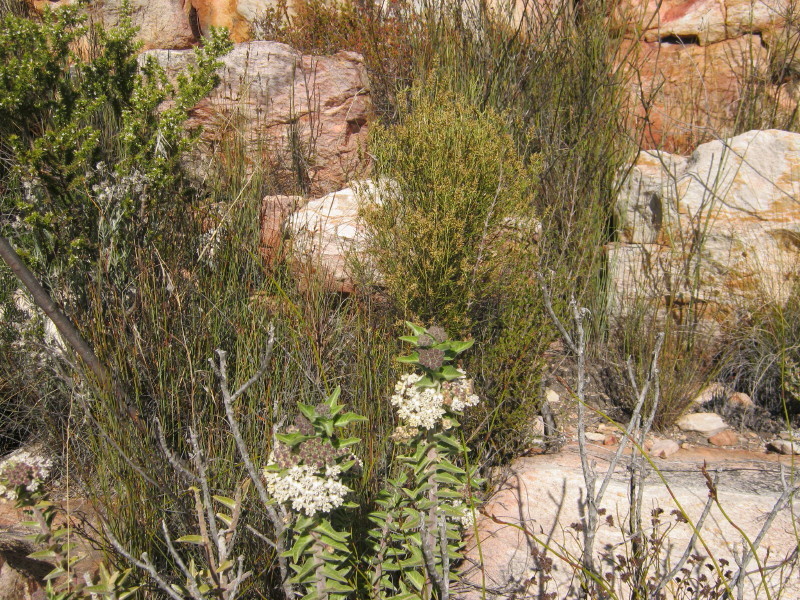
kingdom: Plantae
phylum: Tracheophyta
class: Magnoliopsida
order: Gentianales
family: Apocynaceae
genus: Gomphocarpus
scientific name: Gomphocarpus cancellatus
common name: Wild cotton
